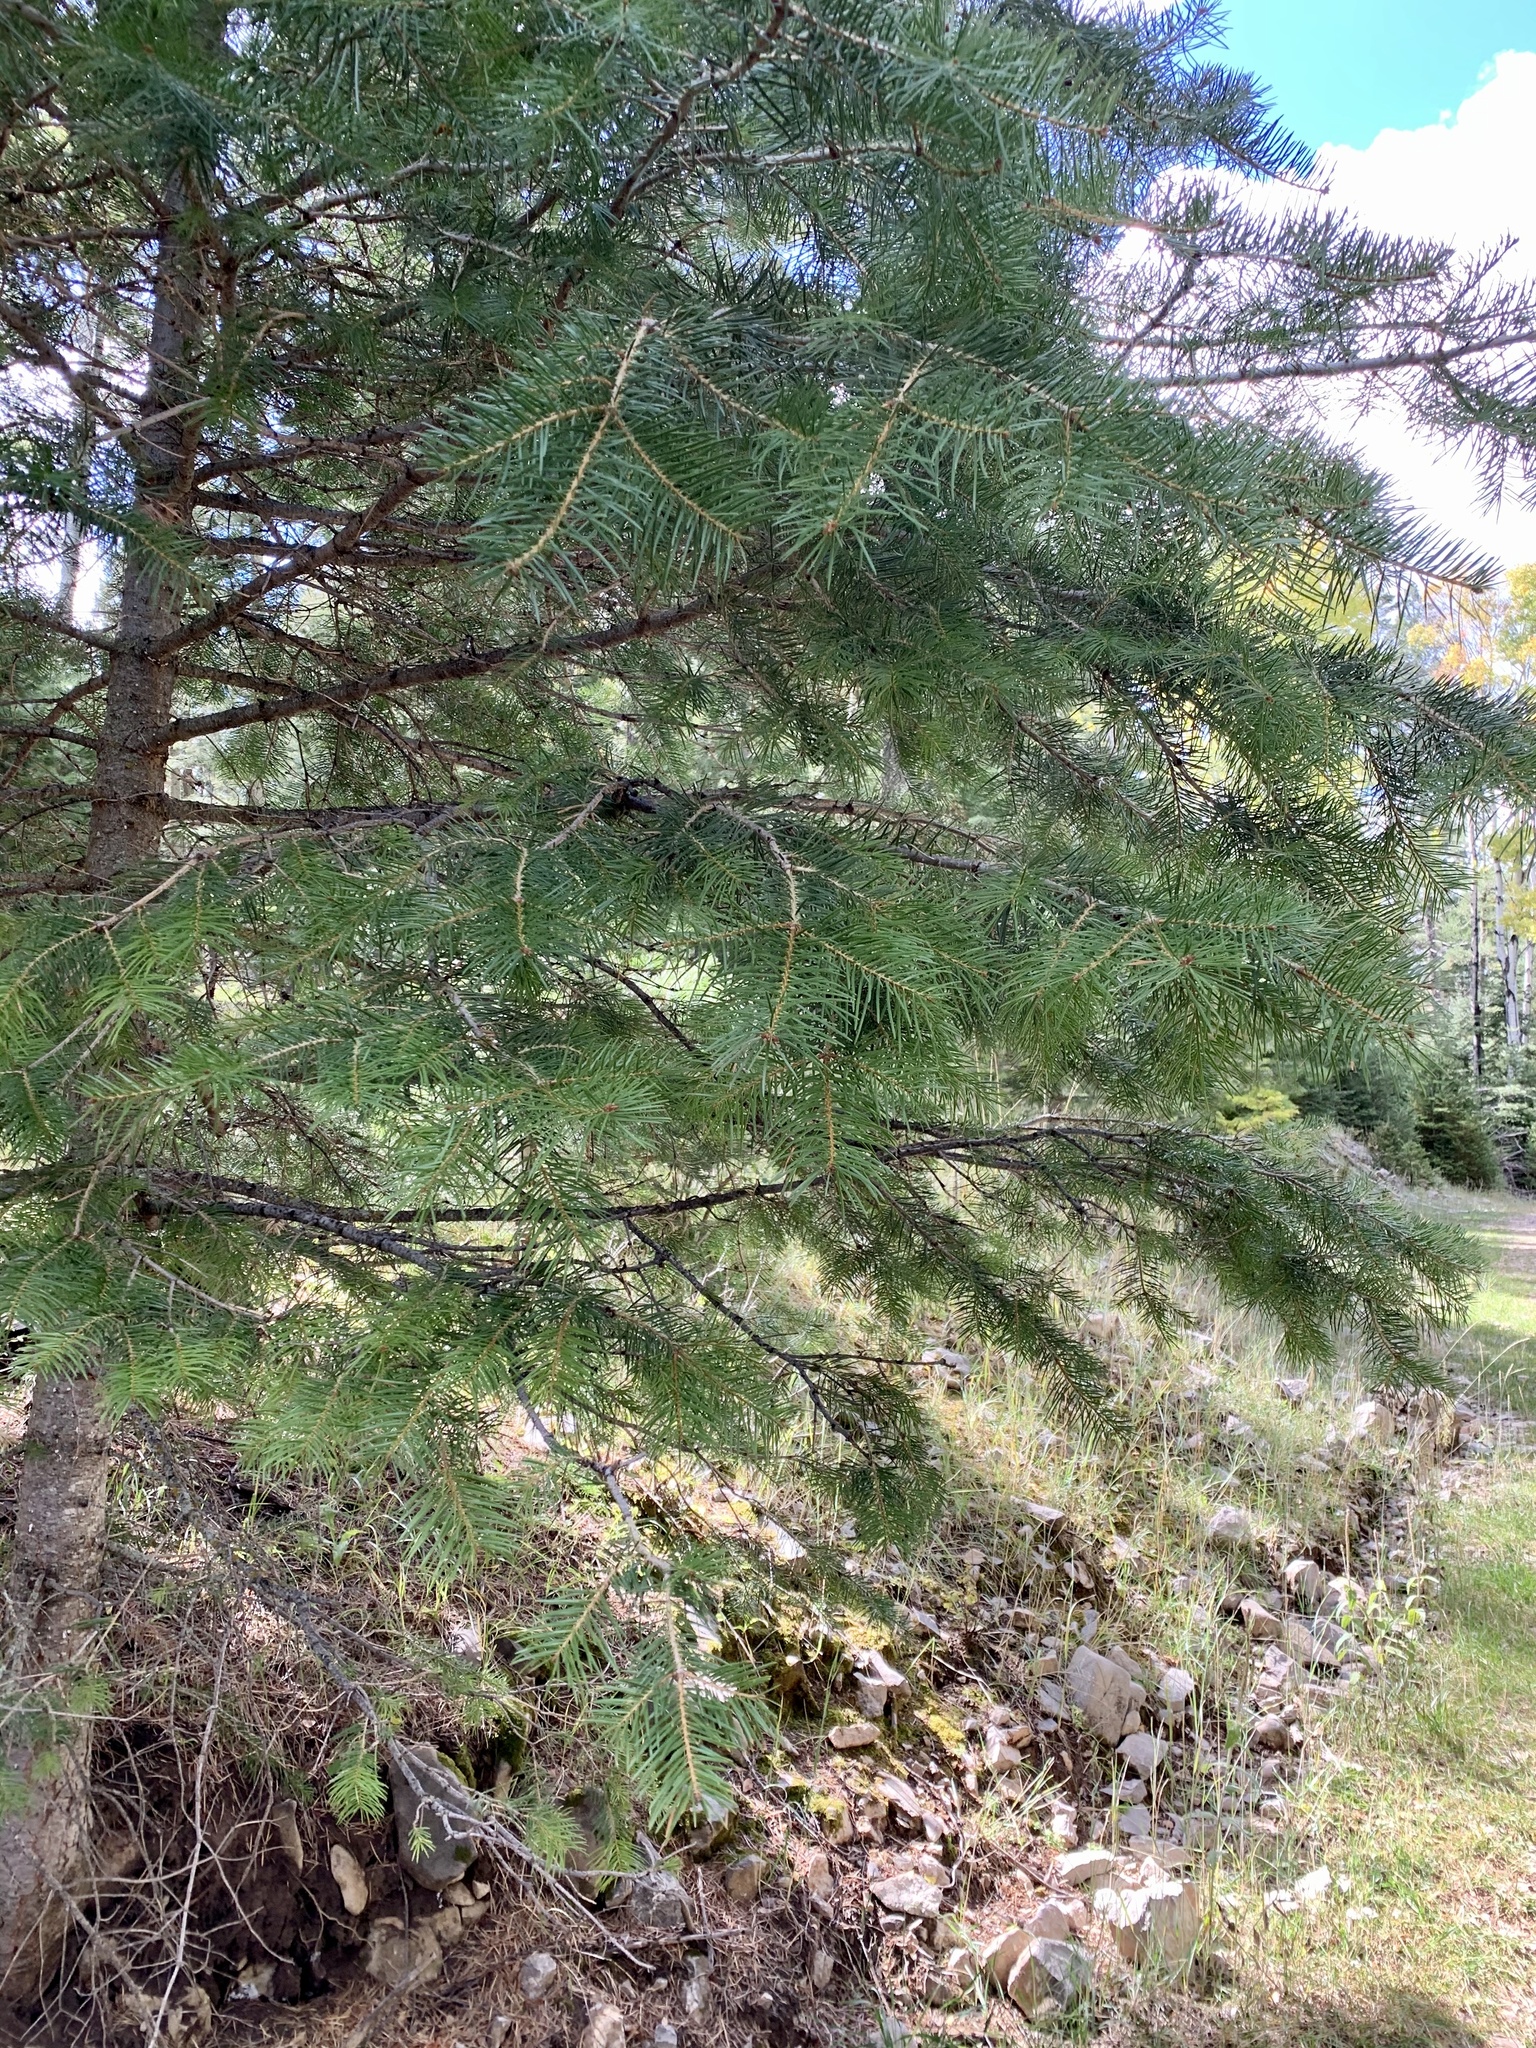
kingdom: Plantae
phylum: Tracheophyta
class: Pinopsida
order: Pinales
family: Pinaceae
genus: Abies
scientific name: Abies concolor
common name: Colorado fir
